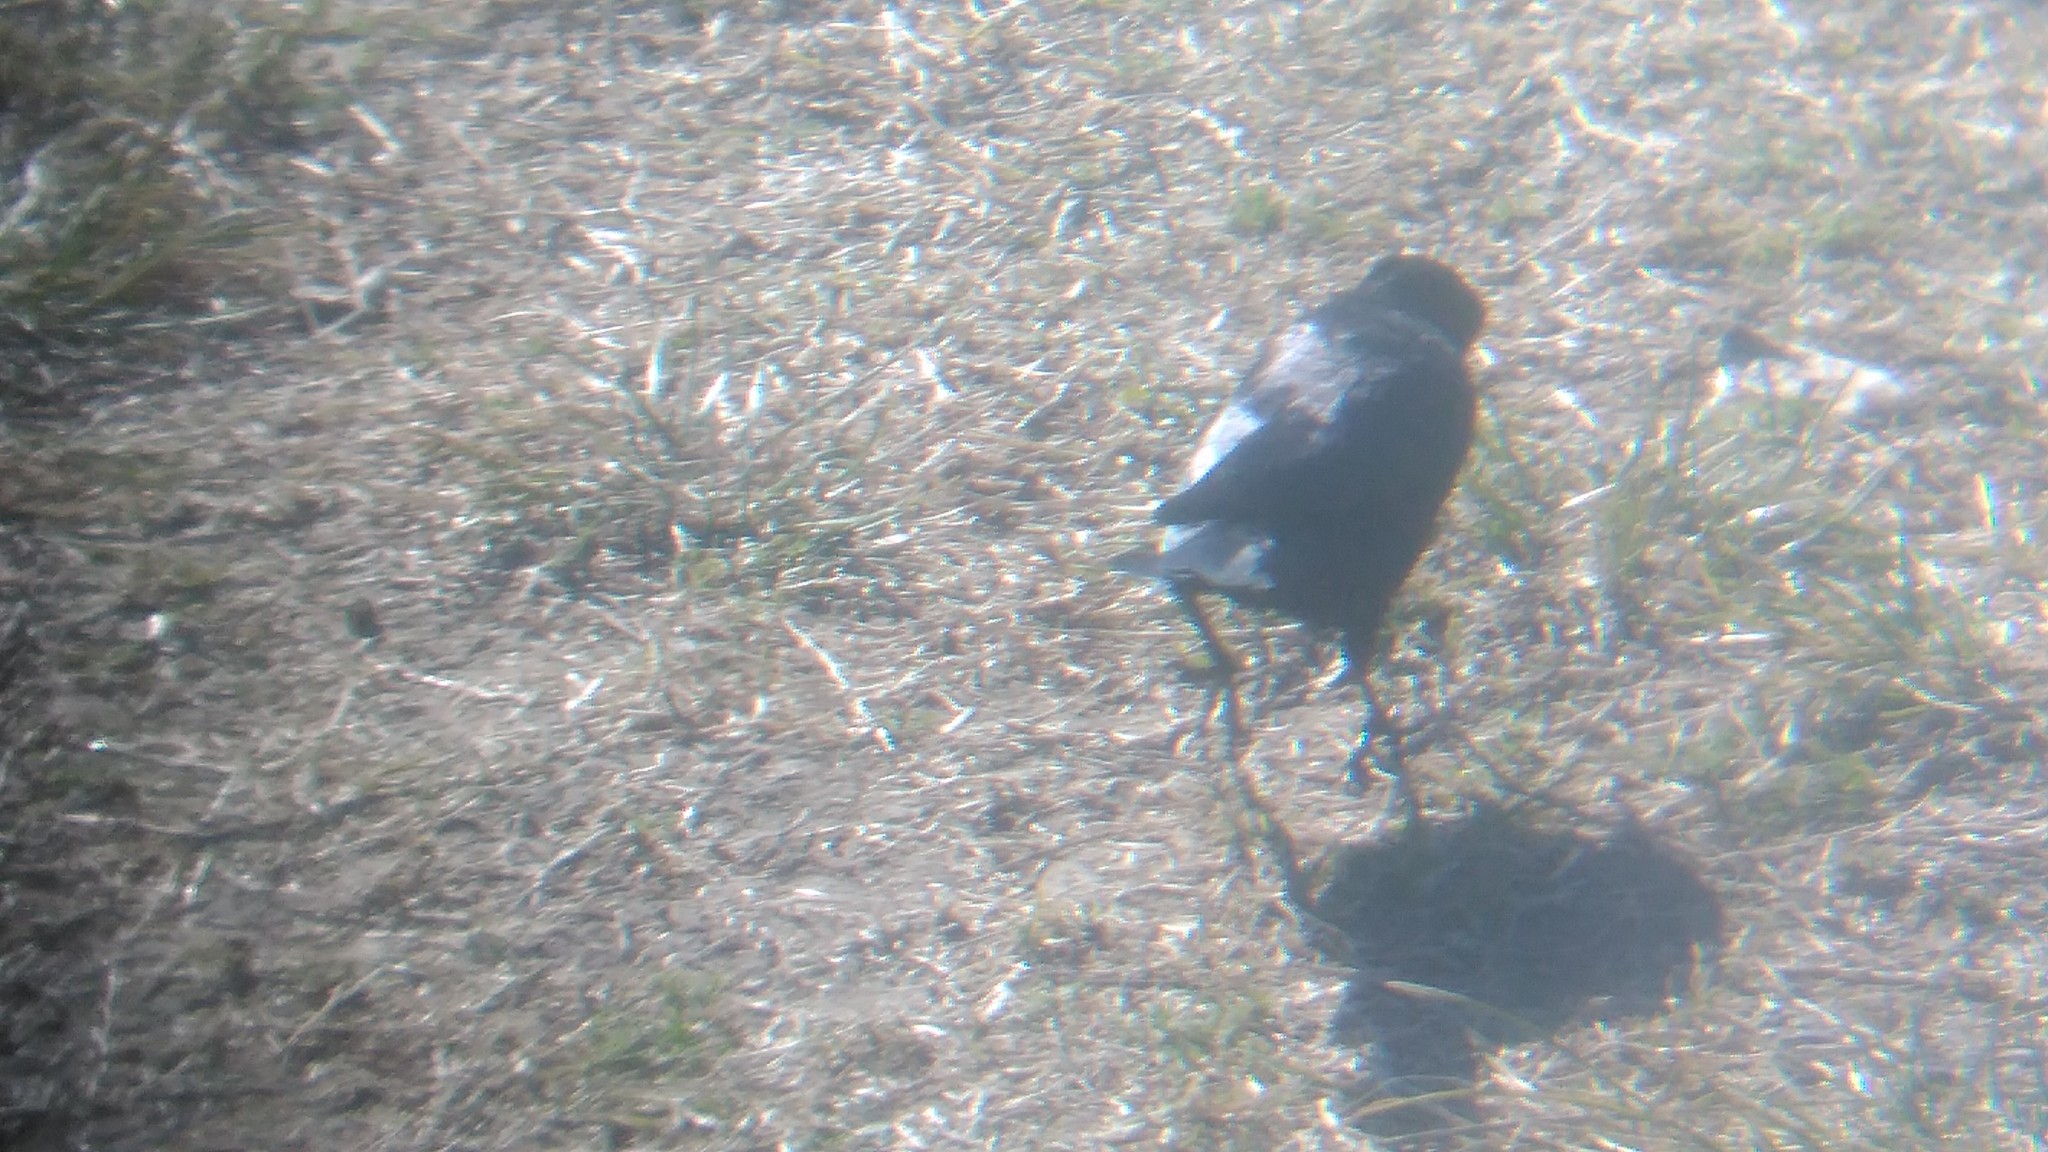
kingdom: Animalia
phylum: Chordata
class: Aves
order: Passeriformes
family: Icteridae
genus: Molothrus
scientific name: Molothrus bonariensis
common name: Shiny cowbird
